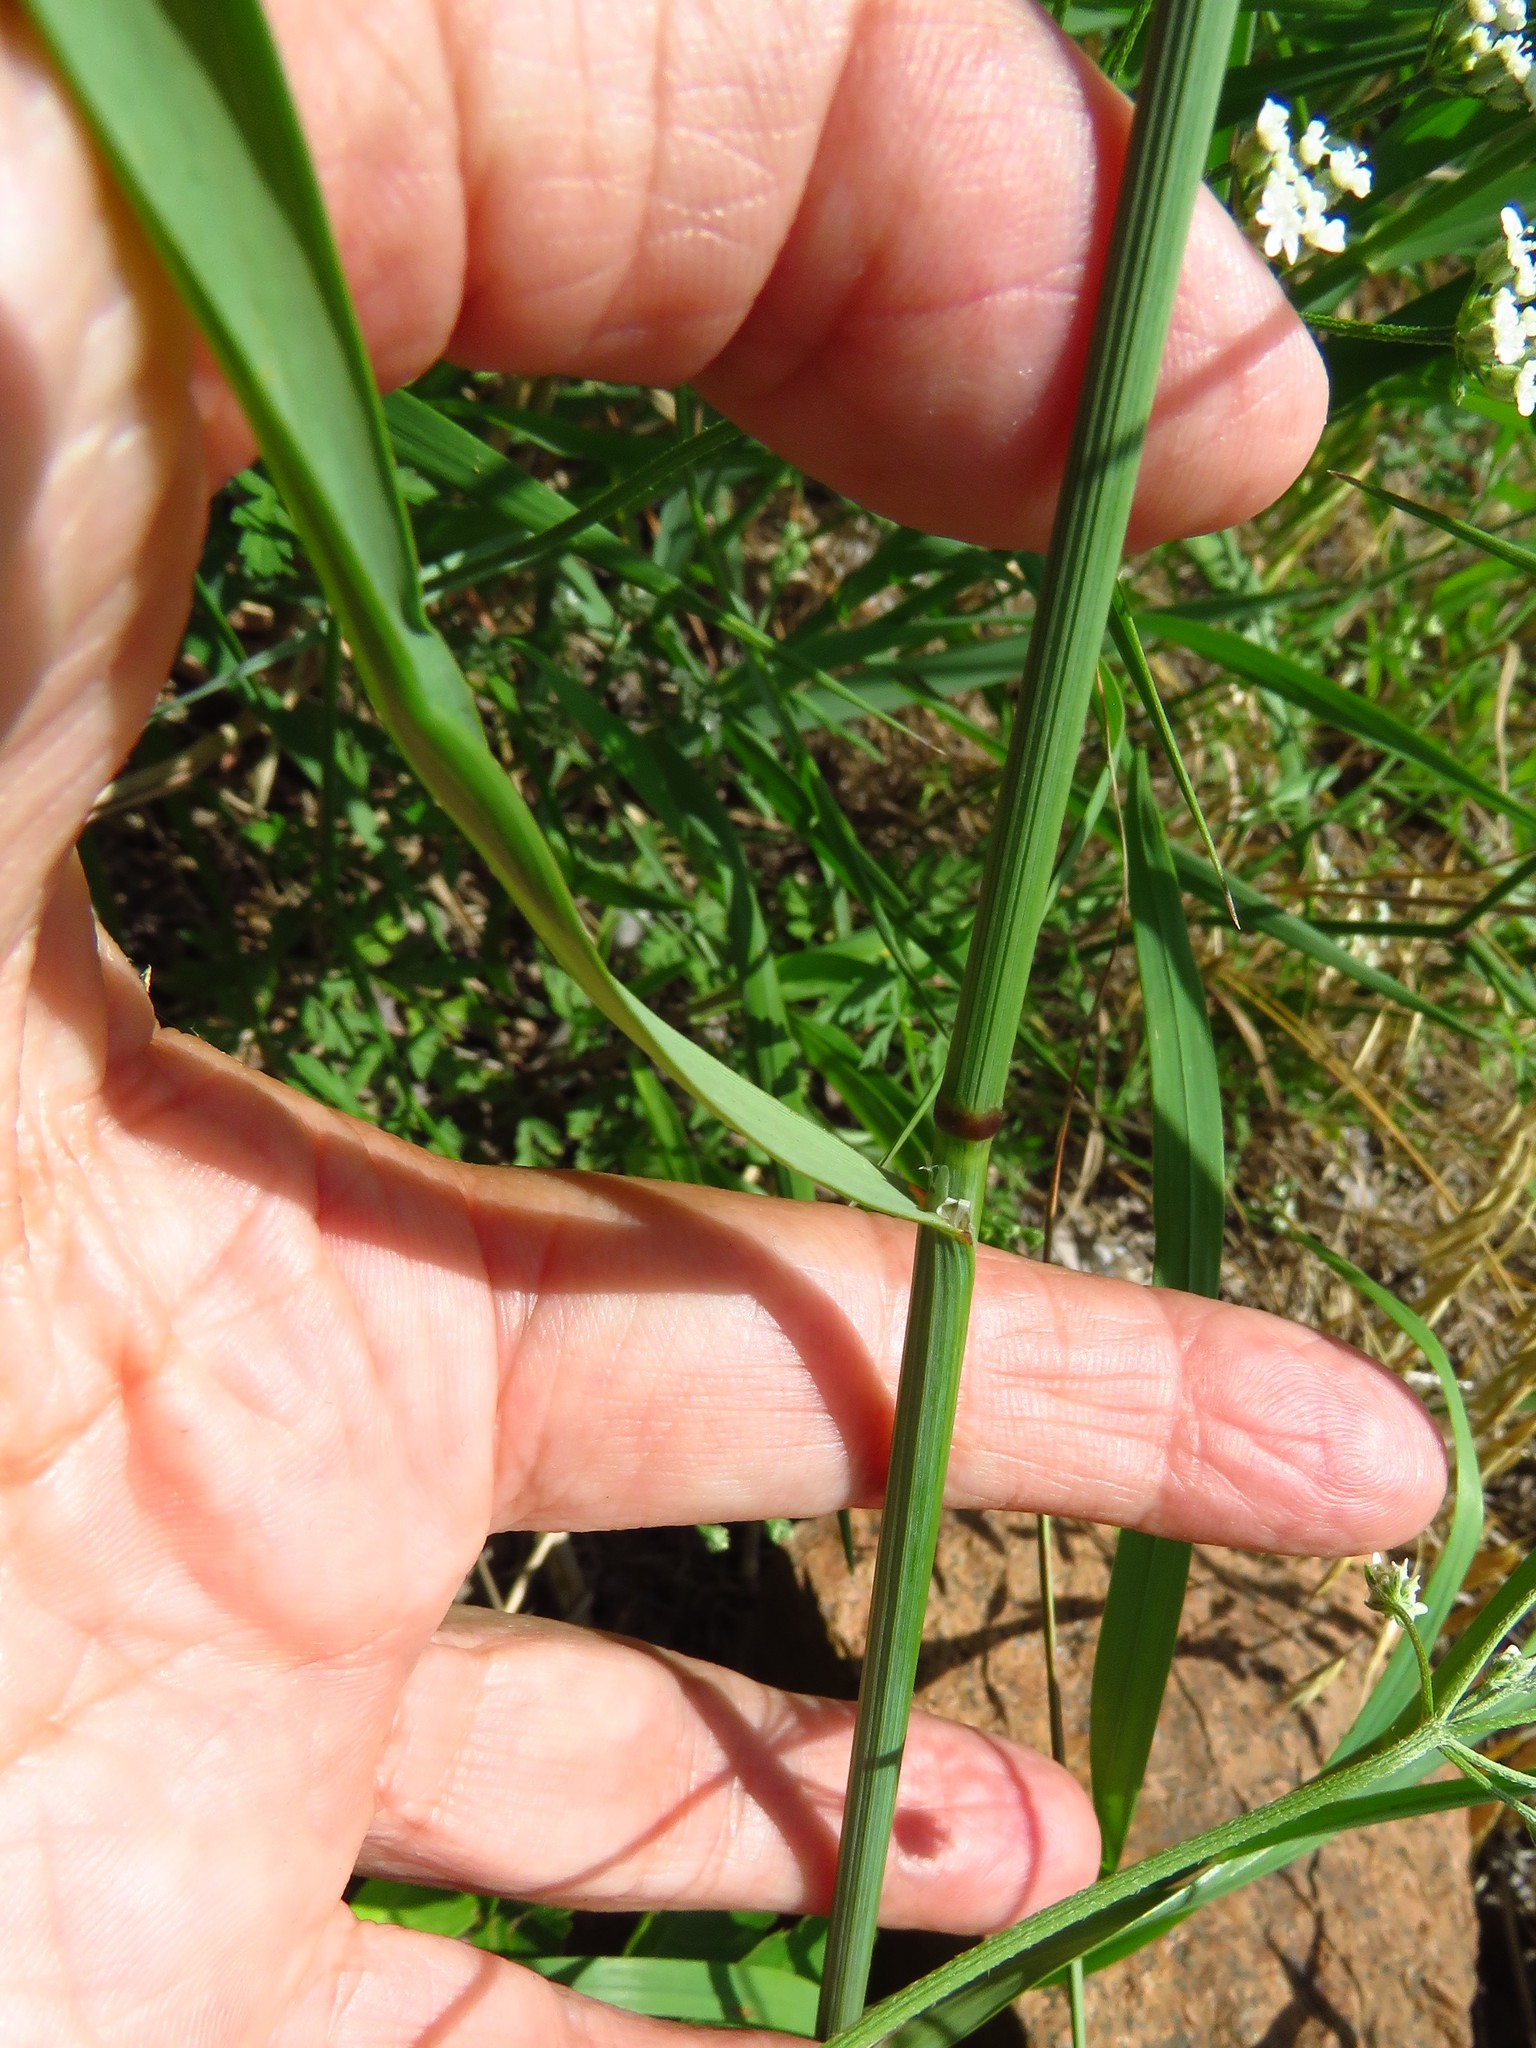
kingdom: Plantae
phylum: Tracheophyta
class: Liliopsida
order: Poales
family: Poaceae
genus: Melica
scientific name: Melica nitens
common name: Three-flower melic
